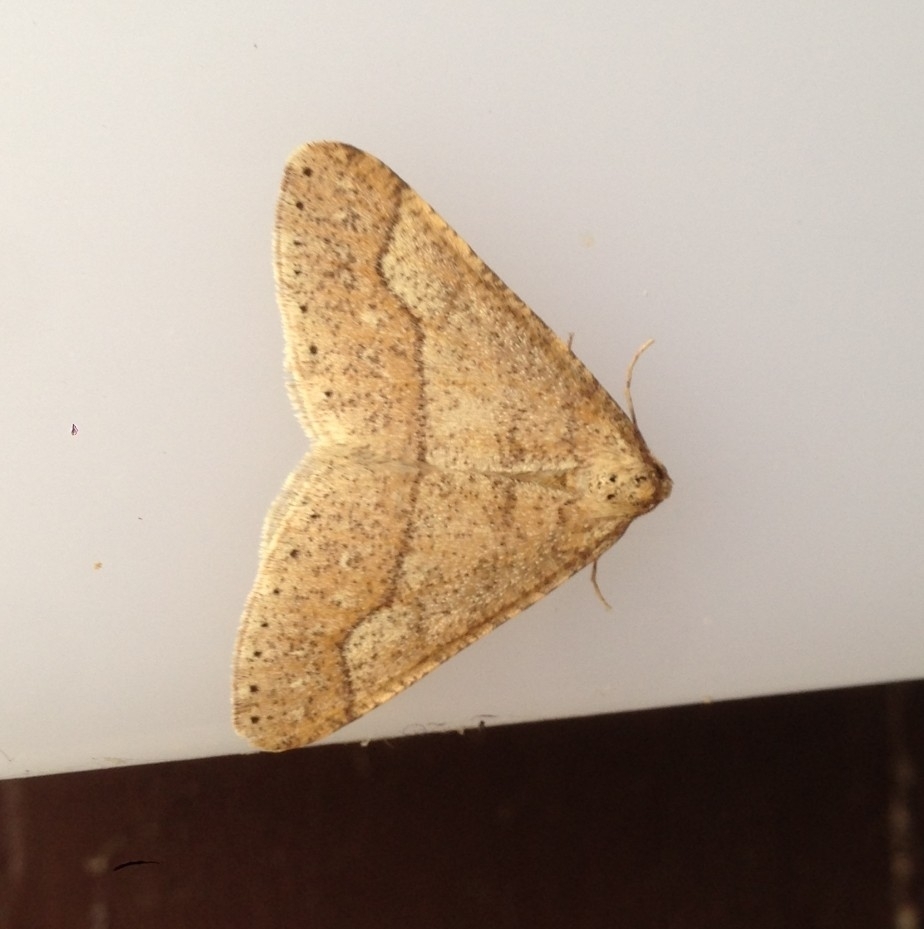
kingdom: Animalia
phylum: Arthropoda
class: Insecta
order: Lepidoptera
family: Geometridae
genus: Agriopis
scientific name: Agriopis marginaria
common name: Dotted border
